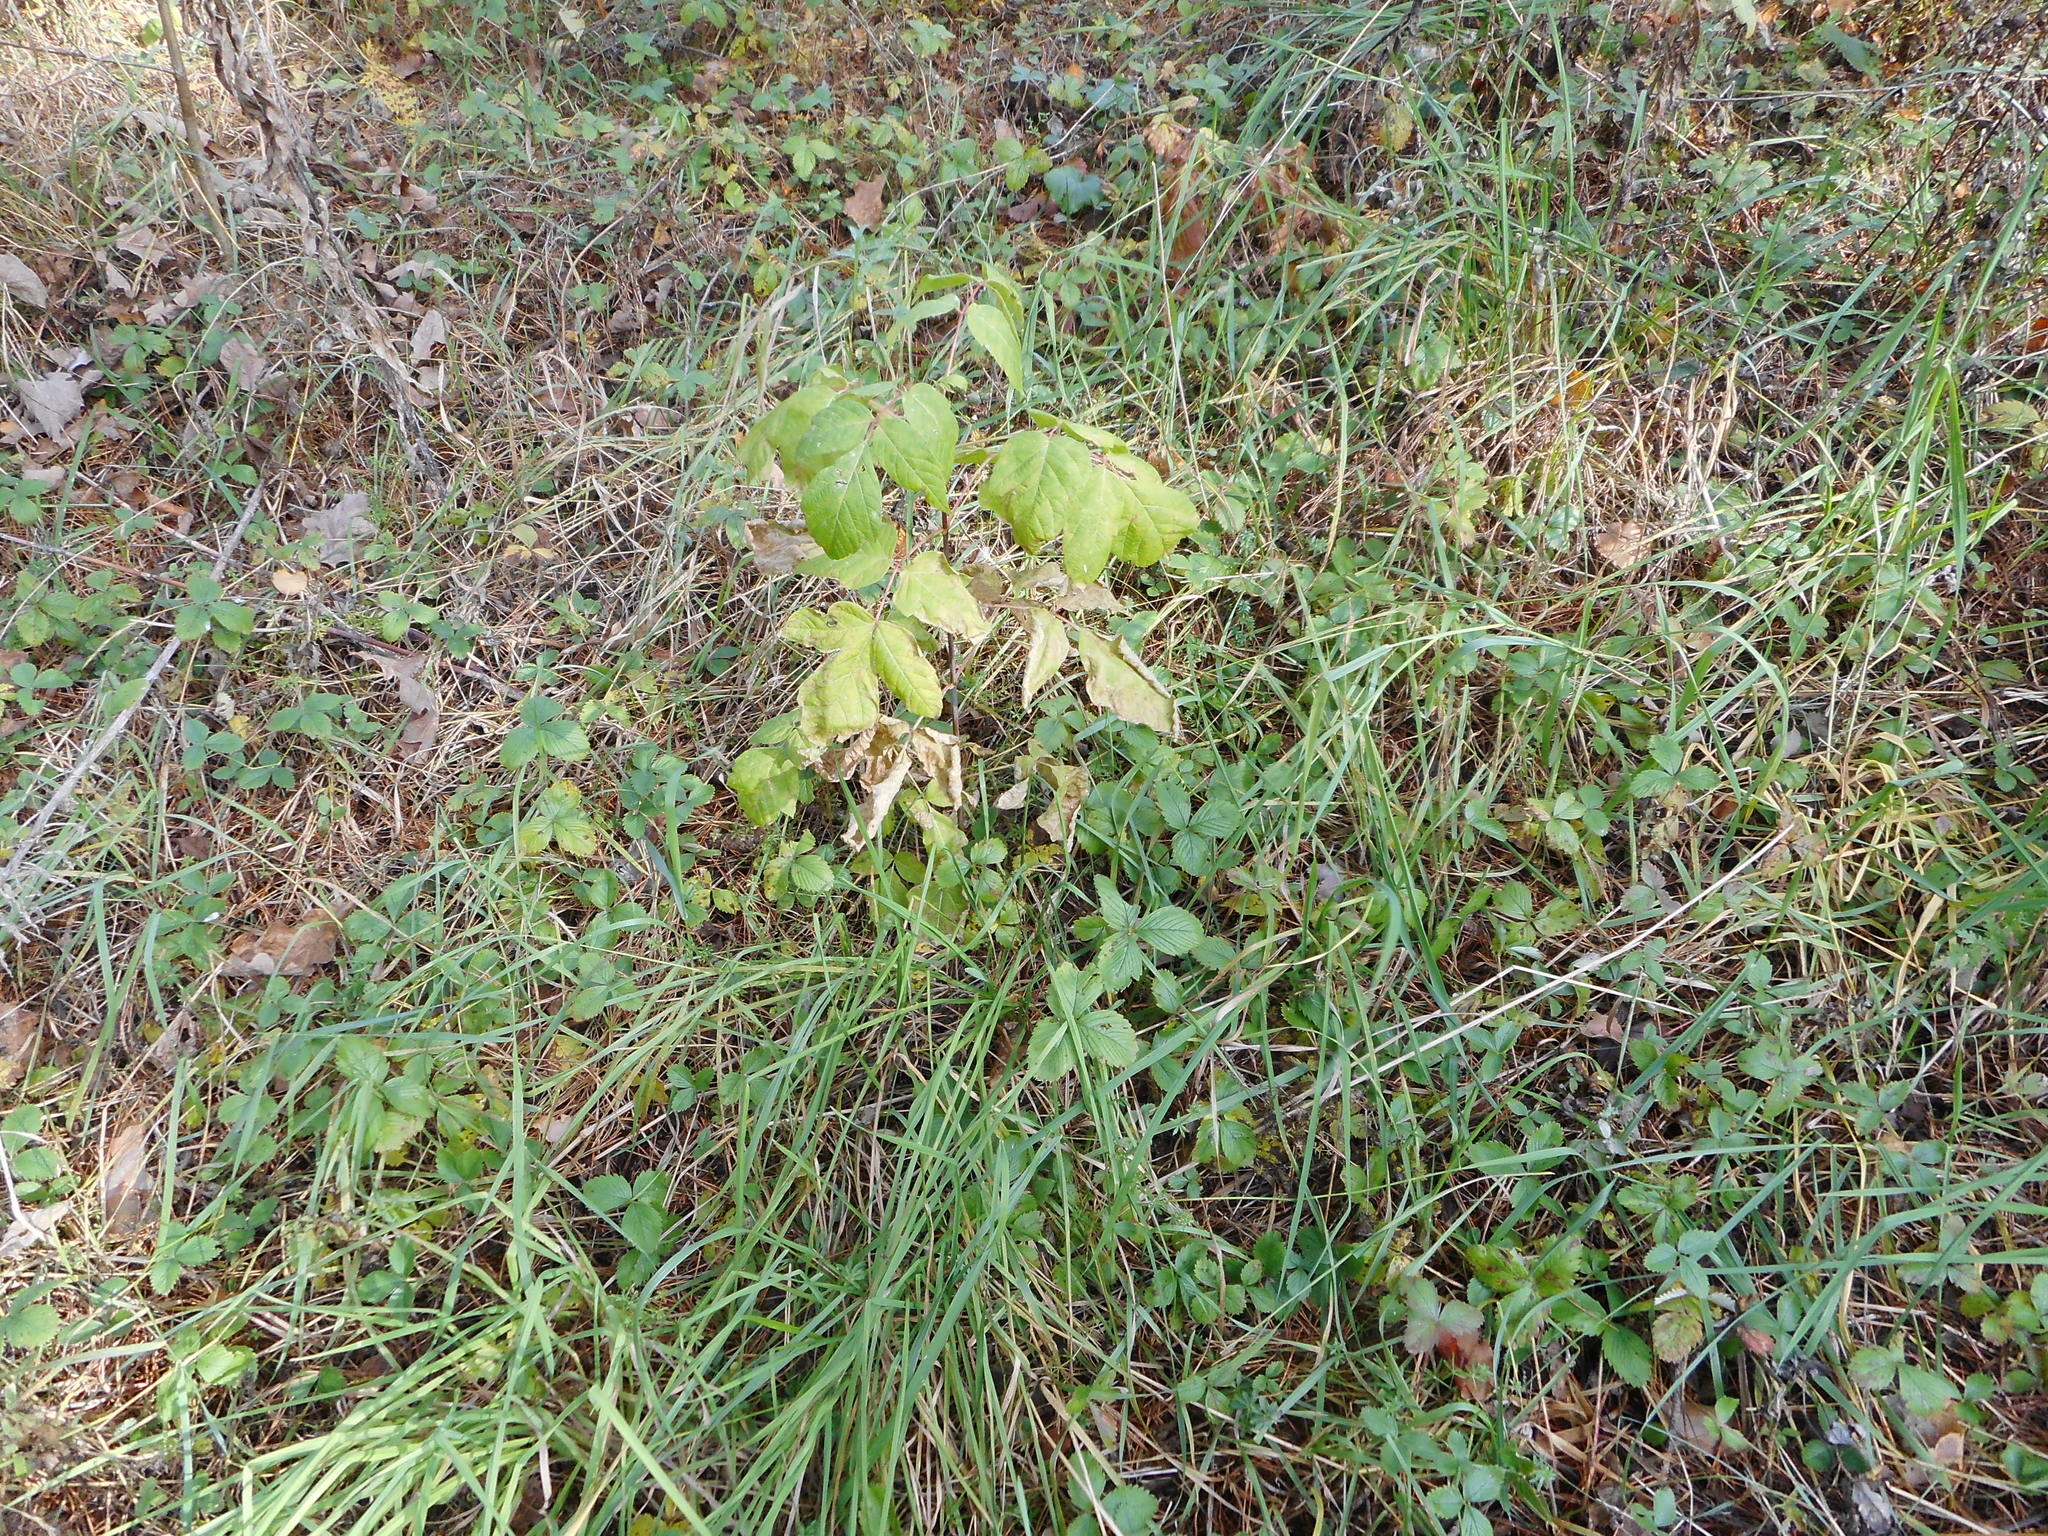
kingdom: Plantae
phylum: Tracheophyta
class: Magnoliopsida
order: Sapindales
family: Sapindaceae
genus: Acer
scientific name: Acer negundo
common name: Ashleaf maple
